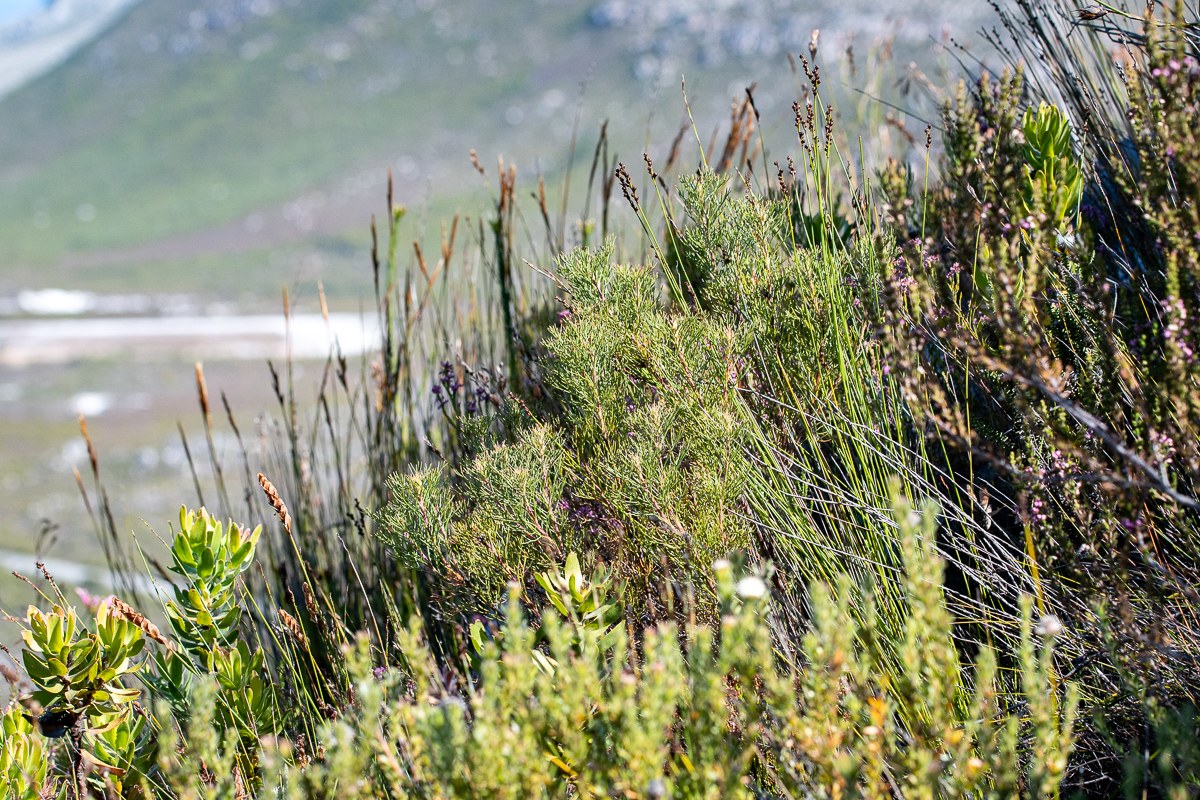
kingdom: Plantae
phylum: Tracheophyta
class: Magnoliopsida
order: Proteales
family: Proteaceae
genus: Serruria
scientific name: Serruria ascendens
